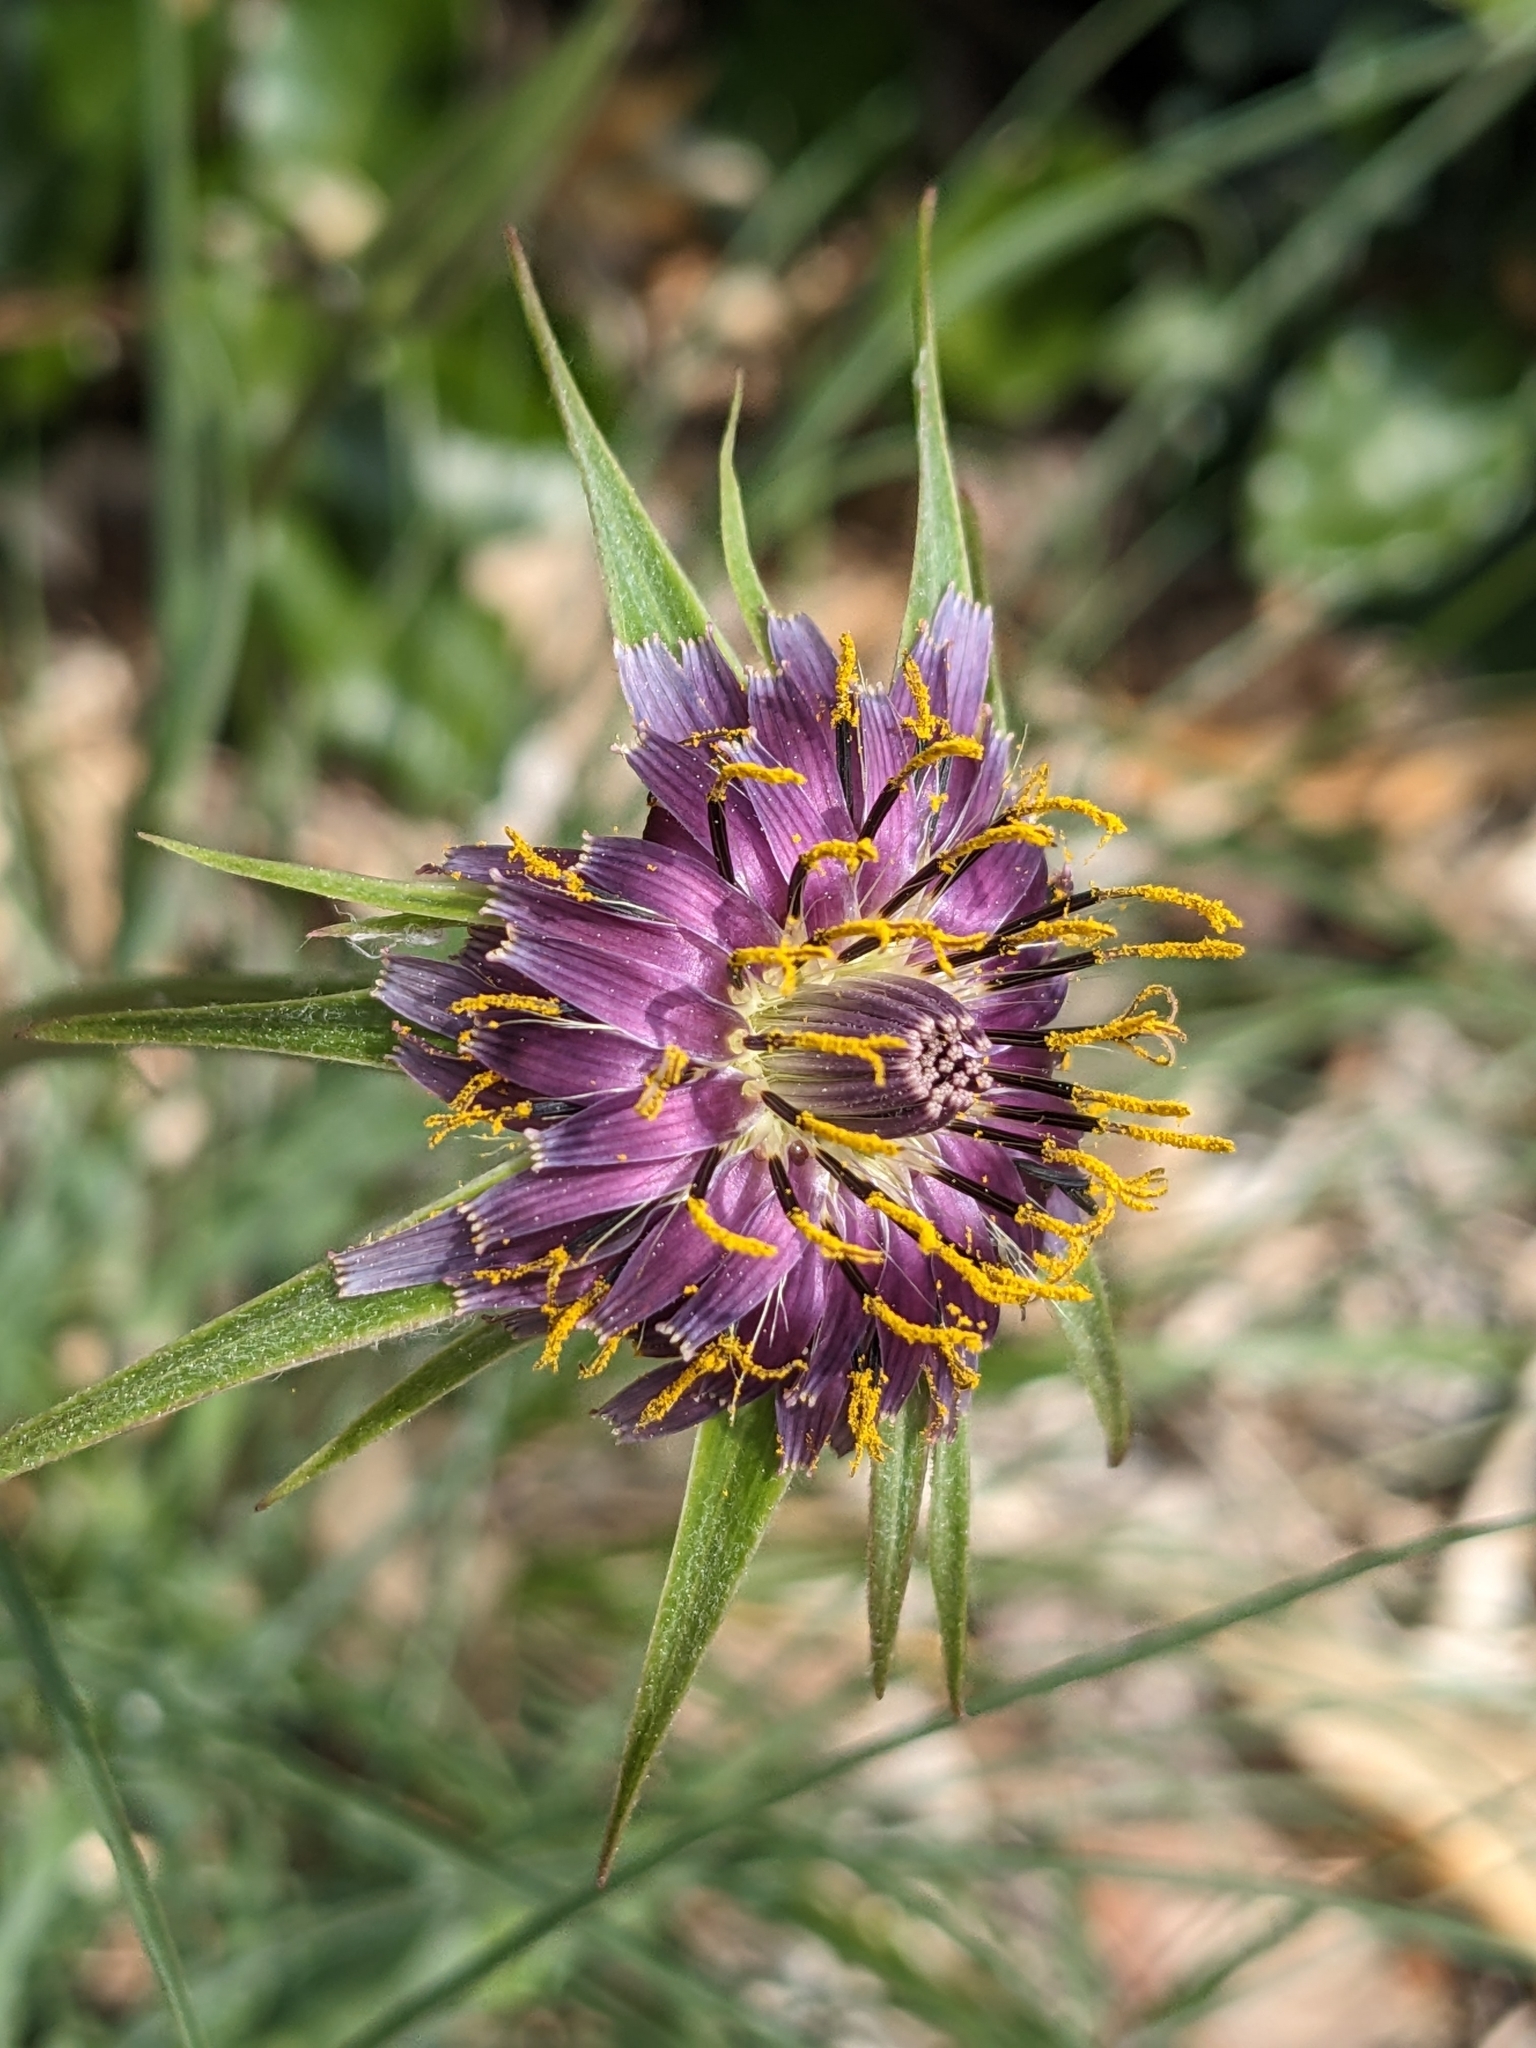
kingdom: Plantae
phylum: Tracheophyta
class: Magnoliopsida
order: Asterales
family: Asteraceae
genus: Tragopogon
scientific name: Tragopogon porrifolius
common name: Salsify
